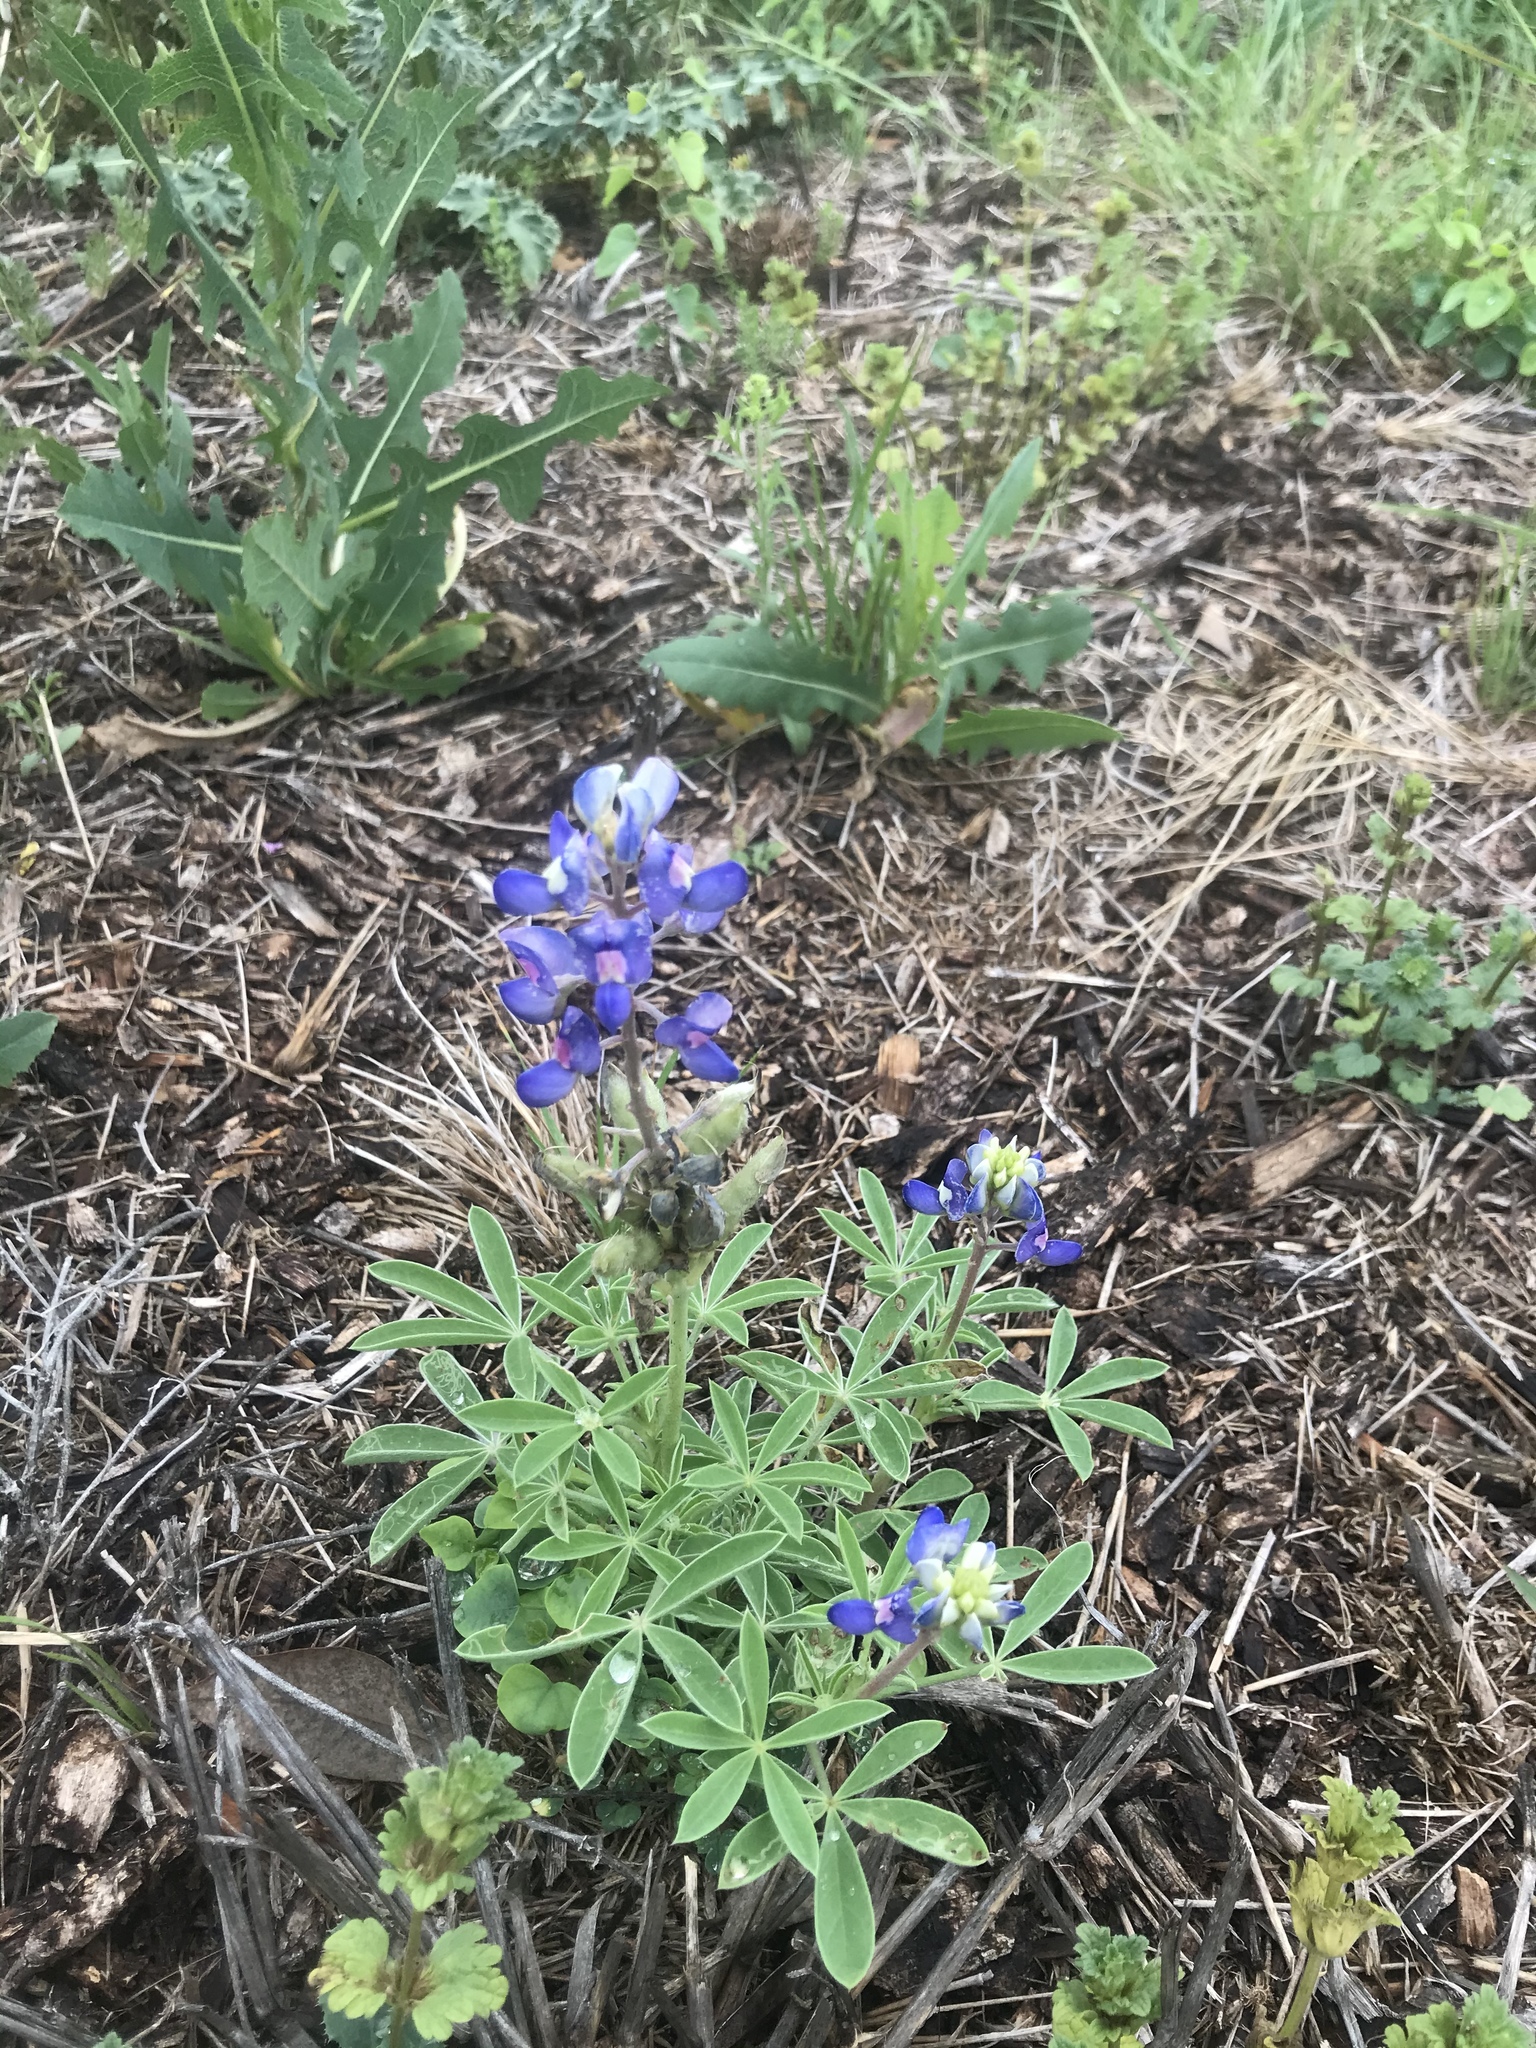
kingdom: Plantae
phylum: Tracheophyta
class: Magnoliopsida
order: Fabales
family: Fabaceae
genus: Lupinus
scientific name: Lupinus texensis
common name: Texas bluebonnet
